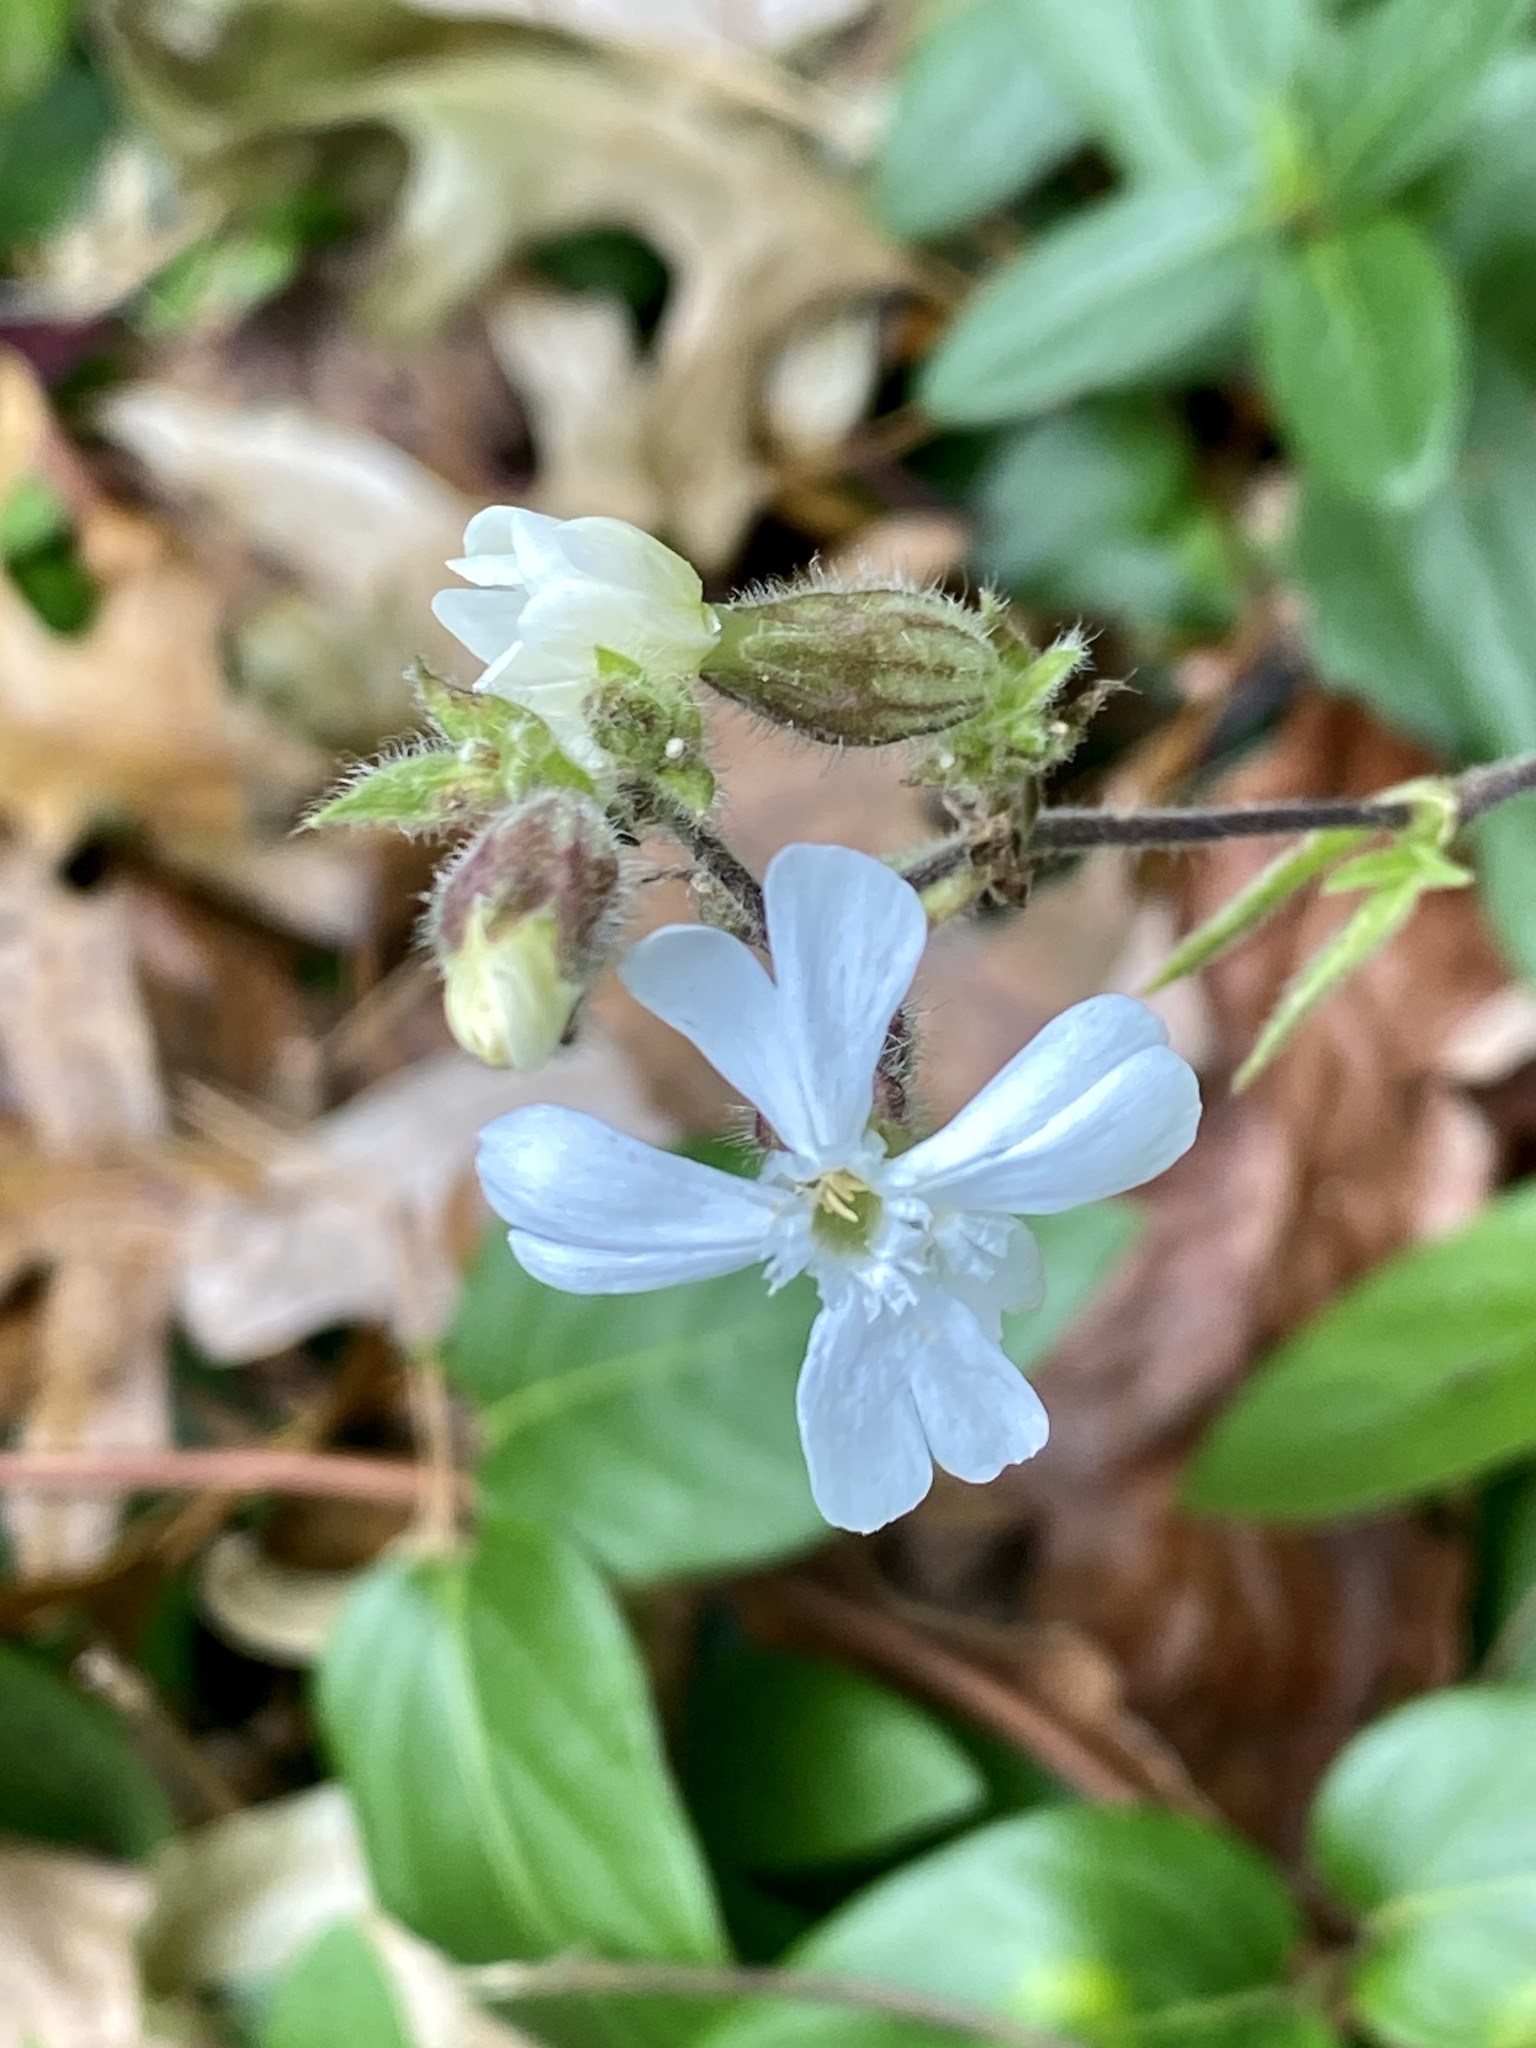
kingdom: Plantae
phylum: Tracheophyta
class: Magnoliopsida
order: Caryophyllales
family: Caryophyllaceae
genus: Silene
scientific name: Silene latifolia
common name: White campion
